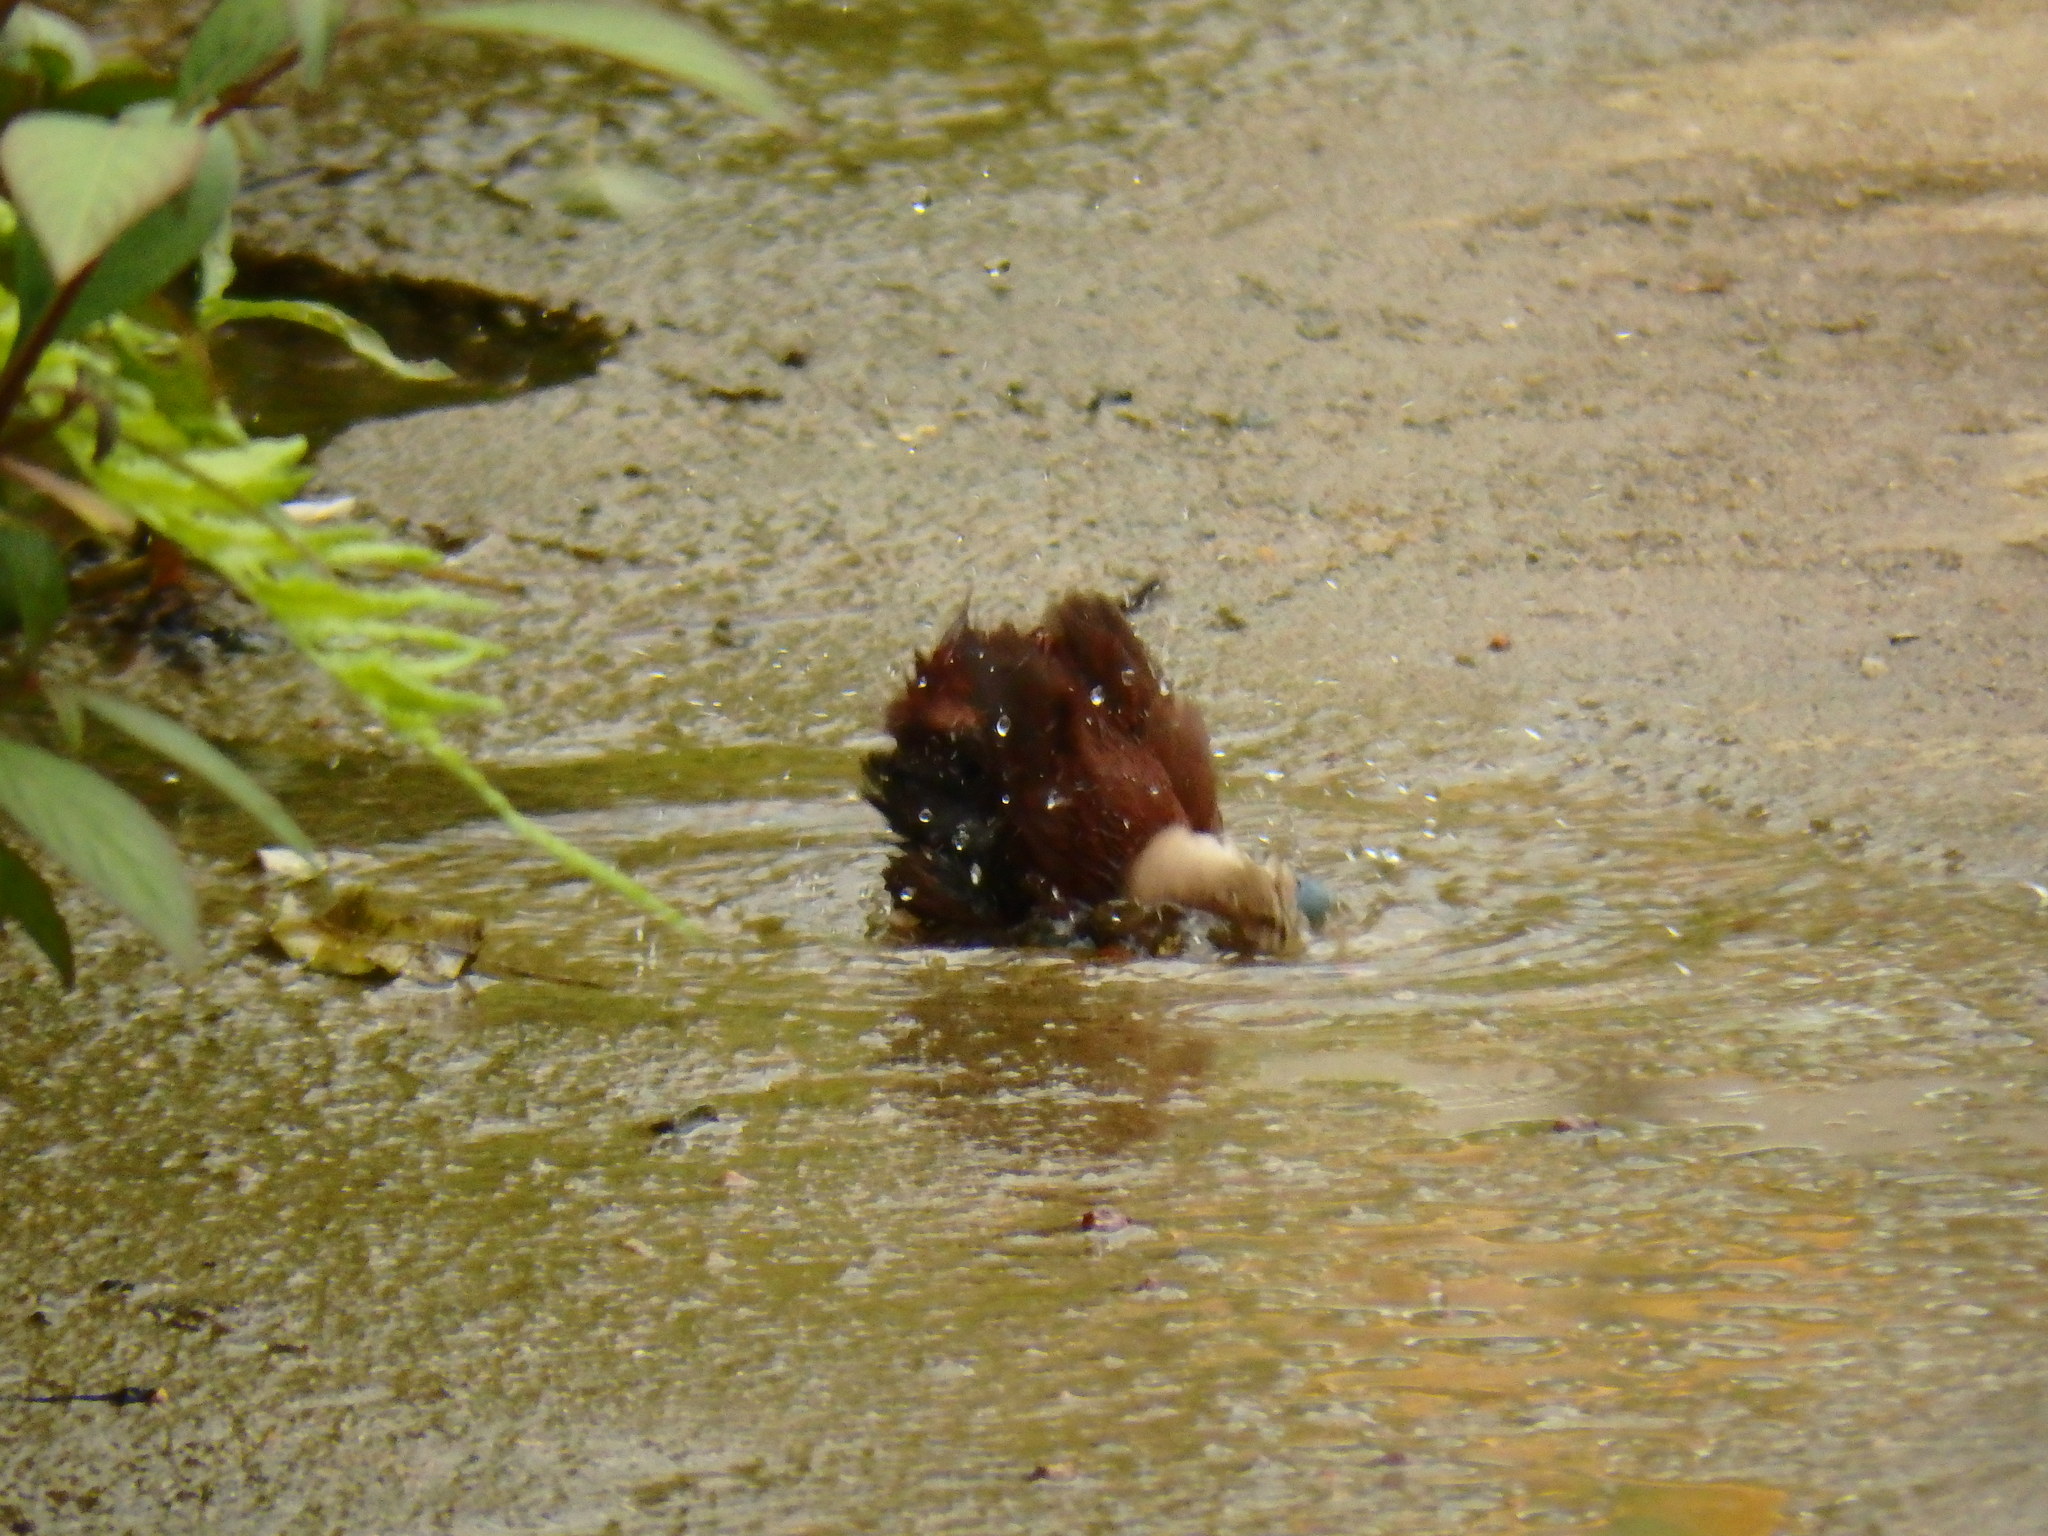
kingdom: Animalia
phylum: Chordata
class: Aves
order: Passeriformes
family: Estrildidae
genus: Lonchura
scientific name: Lonchura maja
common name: White-headed munia
